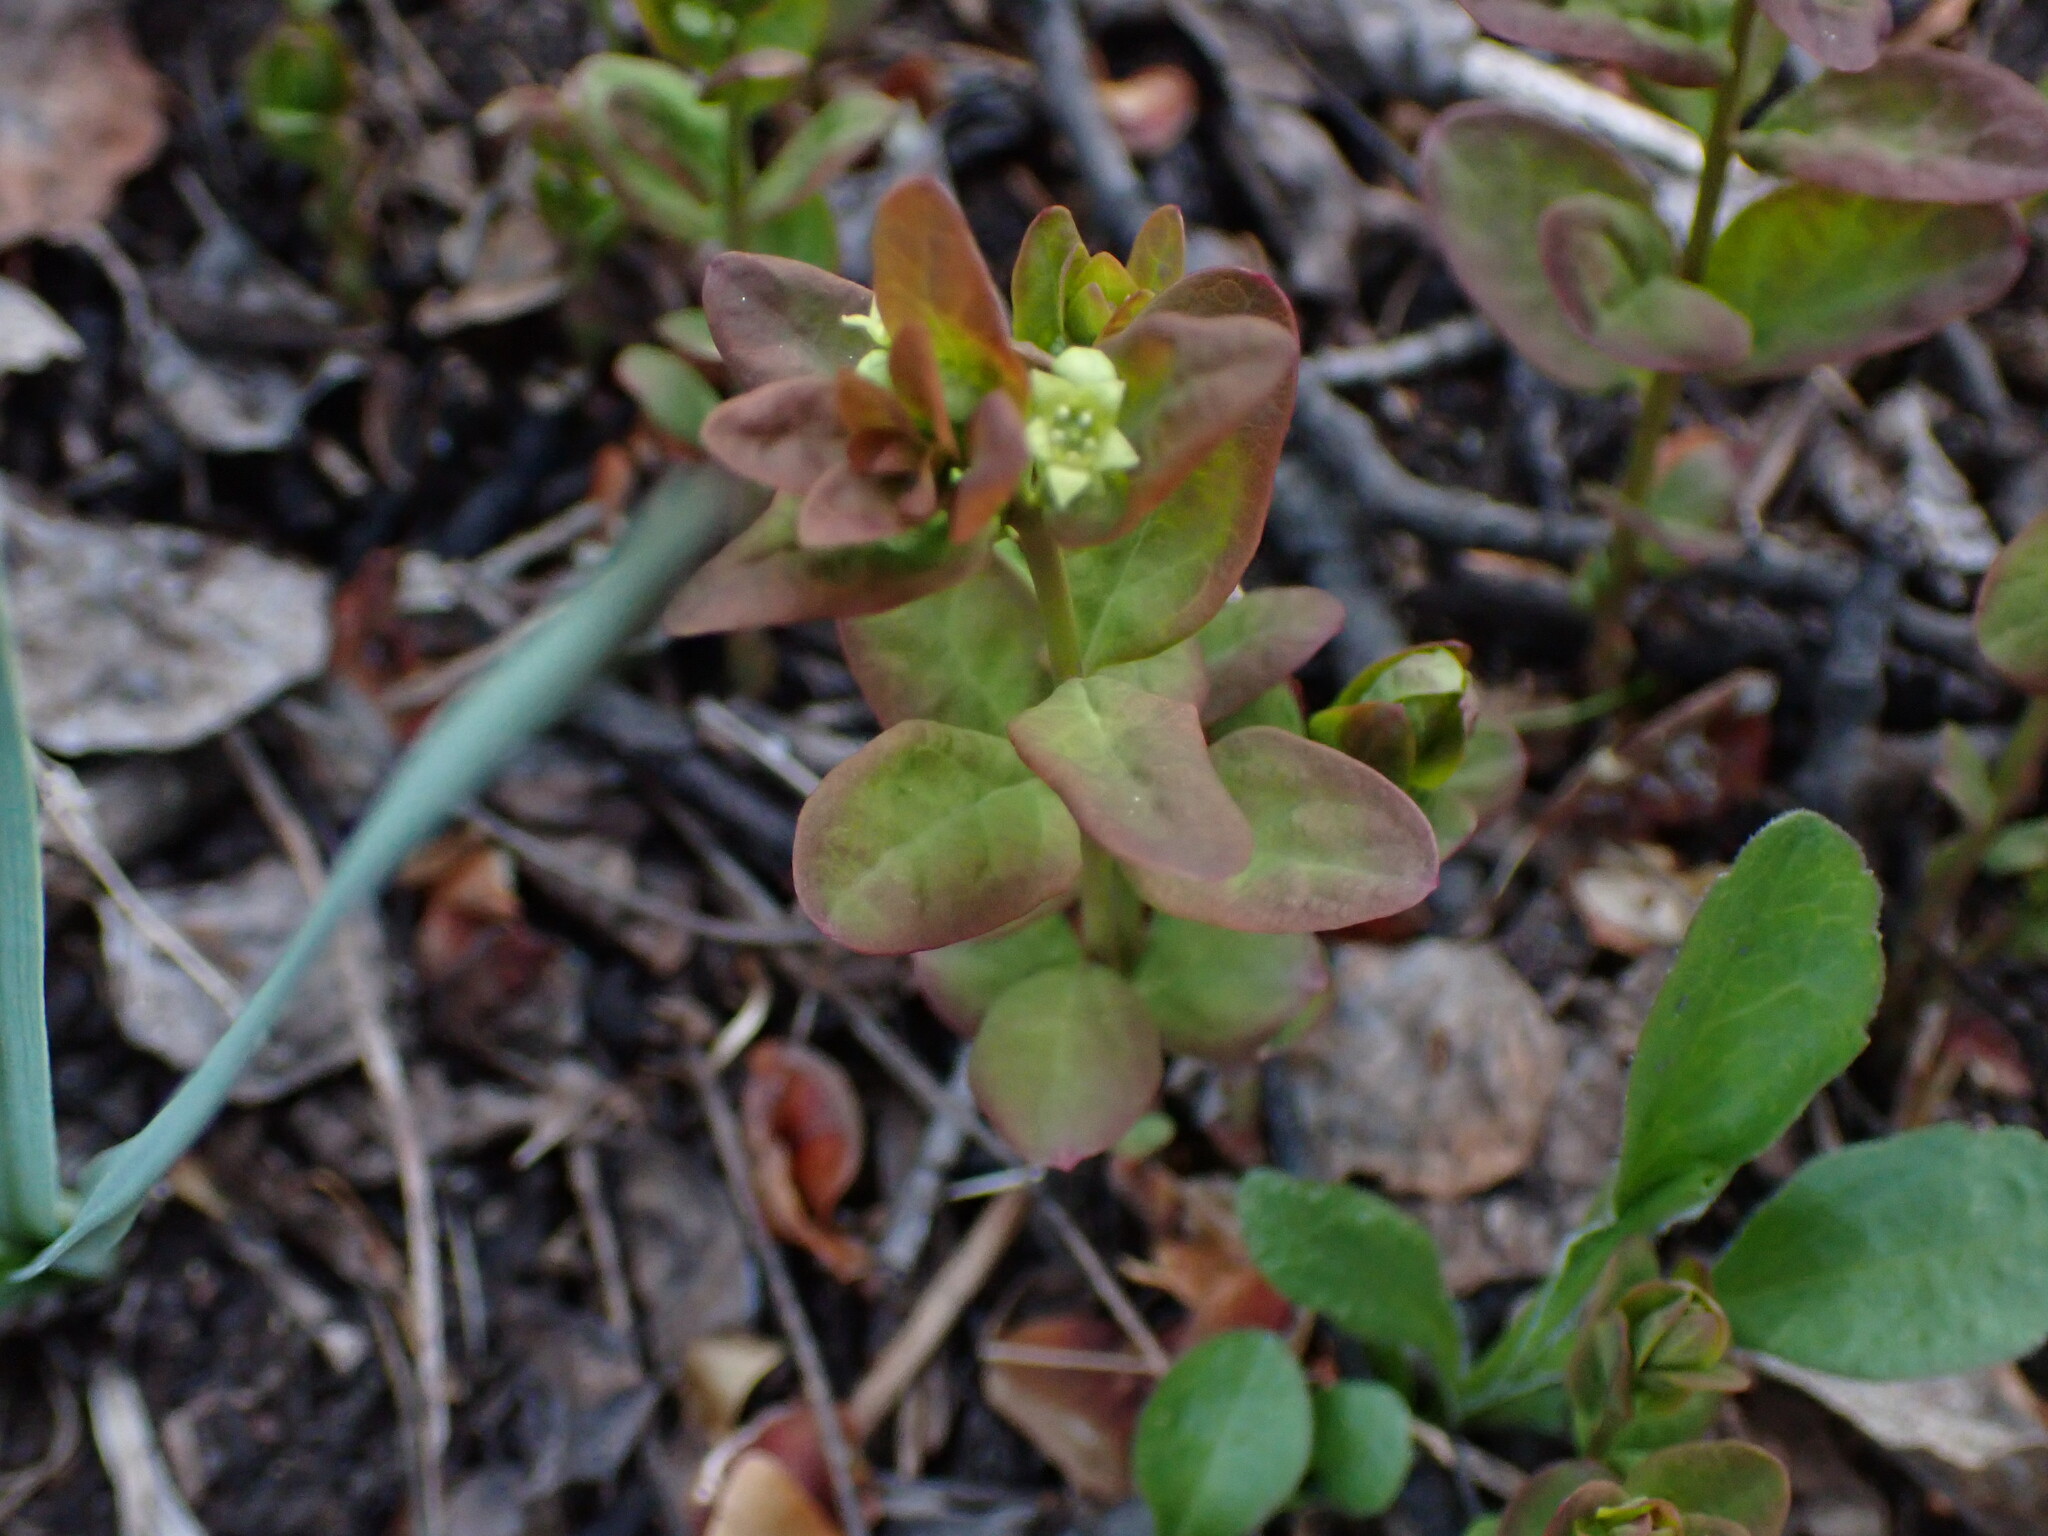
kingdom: Plantae
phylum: Tracheophyta
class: Magnoliopsida
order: Santalales
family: Comandraceae
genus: Geocaulon
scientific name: Geocaulon lividum
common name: Earthberry
